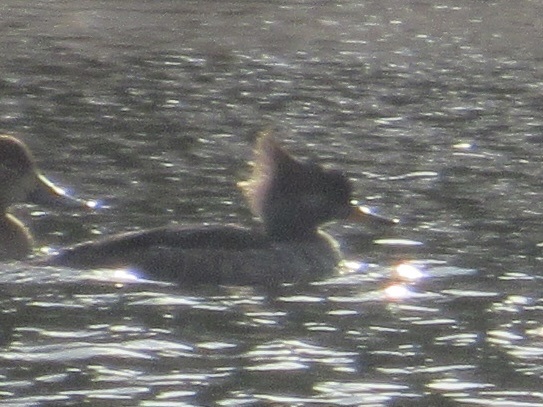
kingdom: Animalia
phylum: Chordata
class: Aves
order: Anseriformes
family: Anatidae
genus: Lophodytes
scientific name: Lophodytes cucullatus
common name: Hooded merganser
